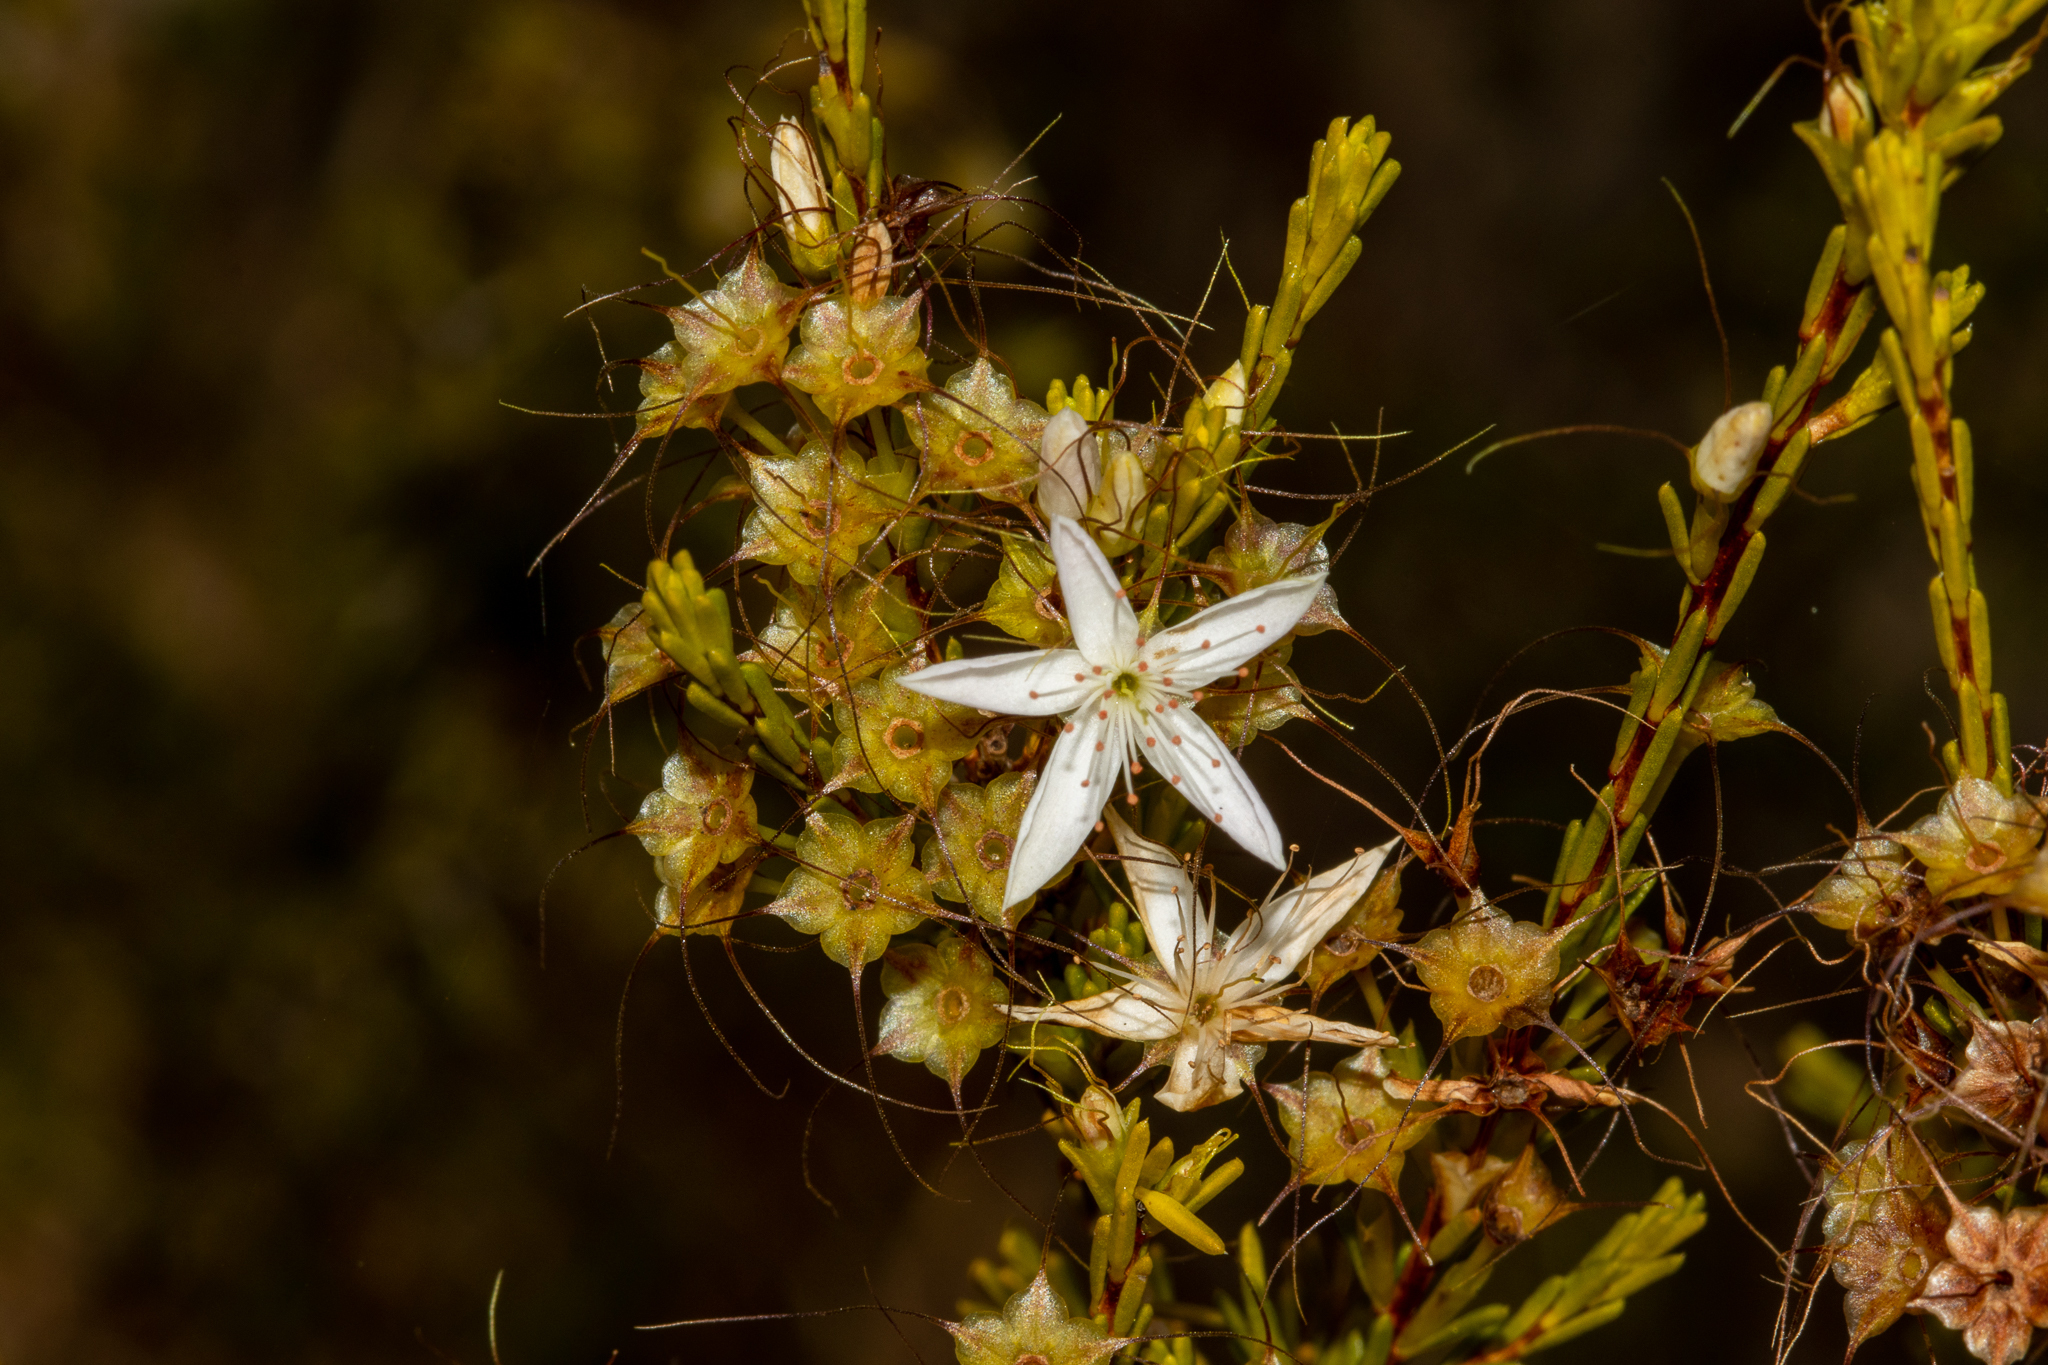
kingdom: Plantae
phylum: Tracheophyta
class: Magnoliopsida
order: Myrtales
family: Myrtaceae
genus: Calytrix
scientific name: Calytrix tetragona
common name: Common fringe myrtle
